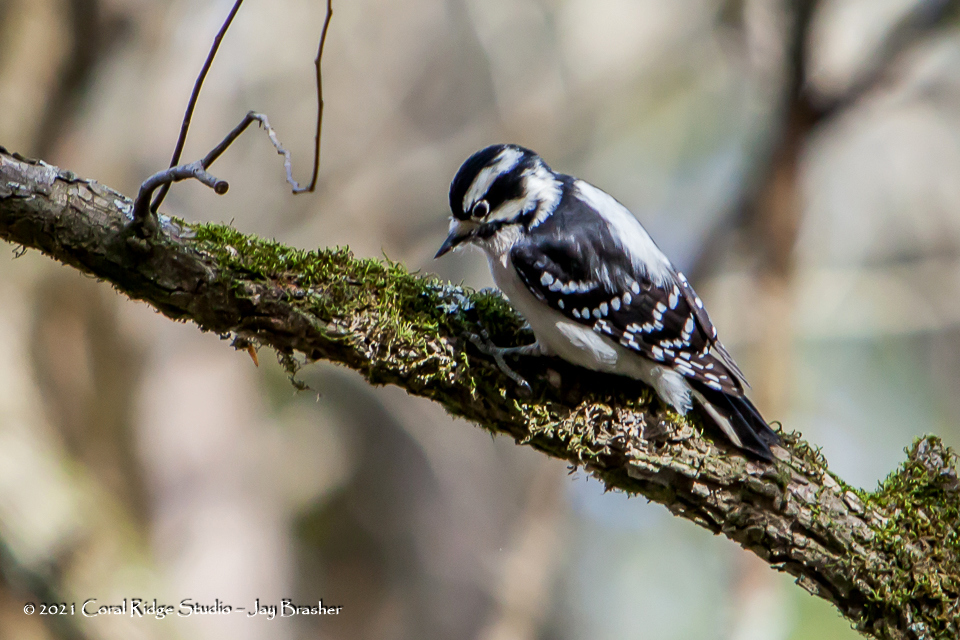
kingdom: Animalia
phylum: Chordata
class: Aves
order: Piciformes
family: Picidae
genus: Dryobates
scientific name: Dryobates pubescens
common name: Downy woodpecker
